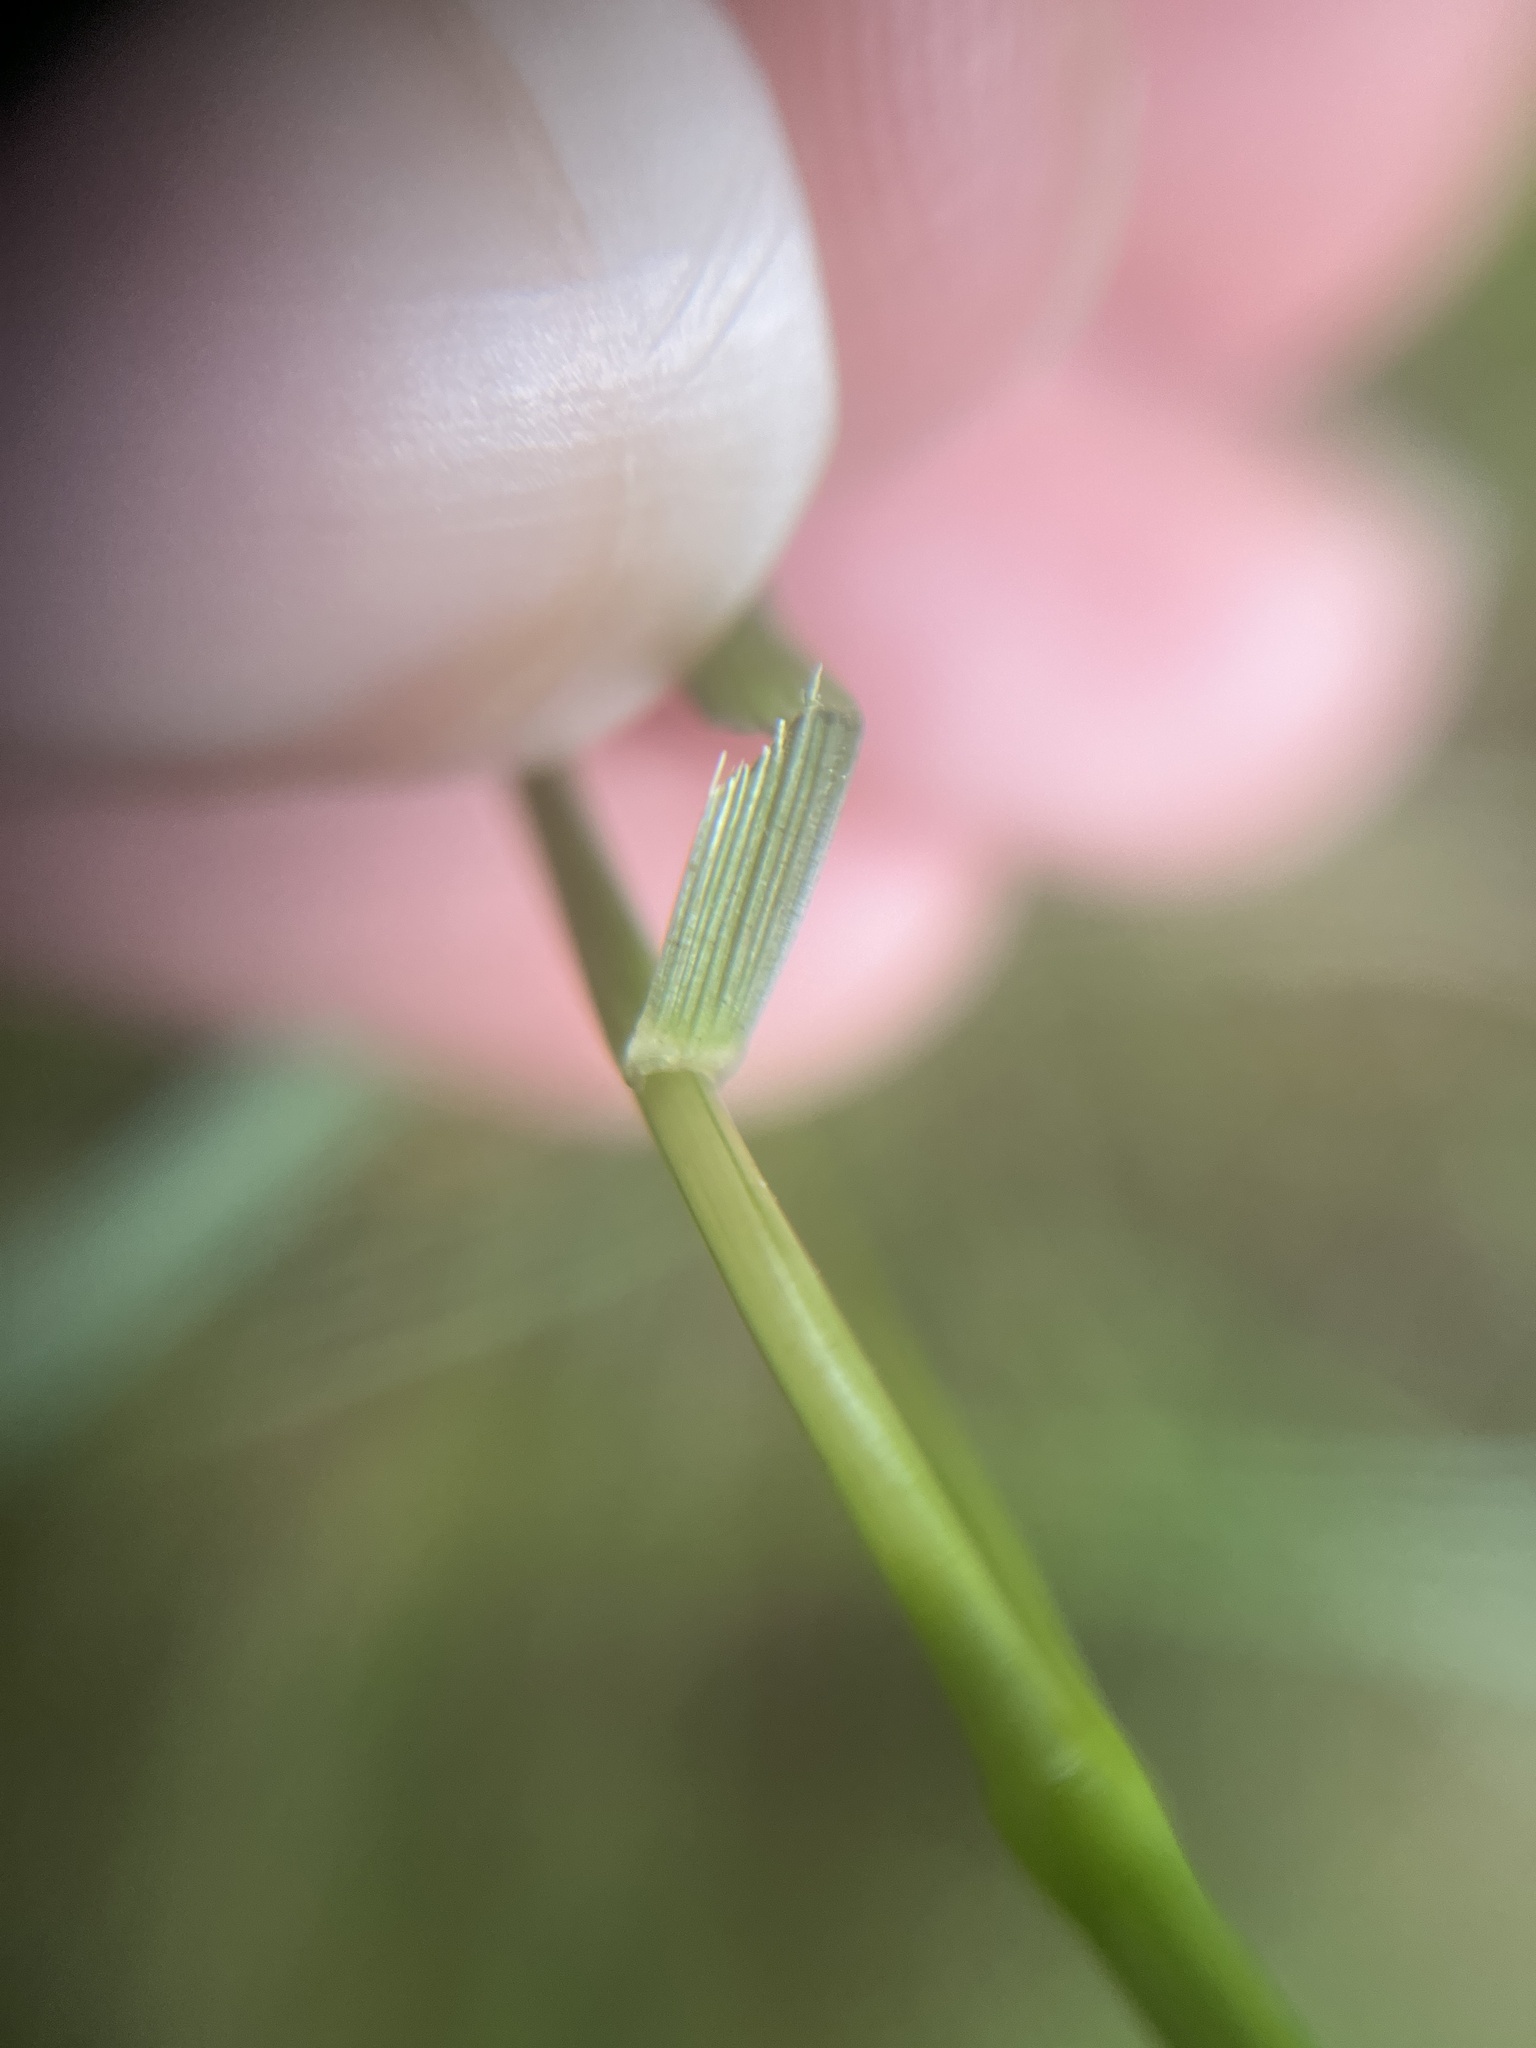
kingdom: Plantae
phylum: Tracheophyta
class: Liliopsida
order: Poales
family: Poaceae
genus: Festuca
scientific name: Festuca rubra
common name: Red fescue
